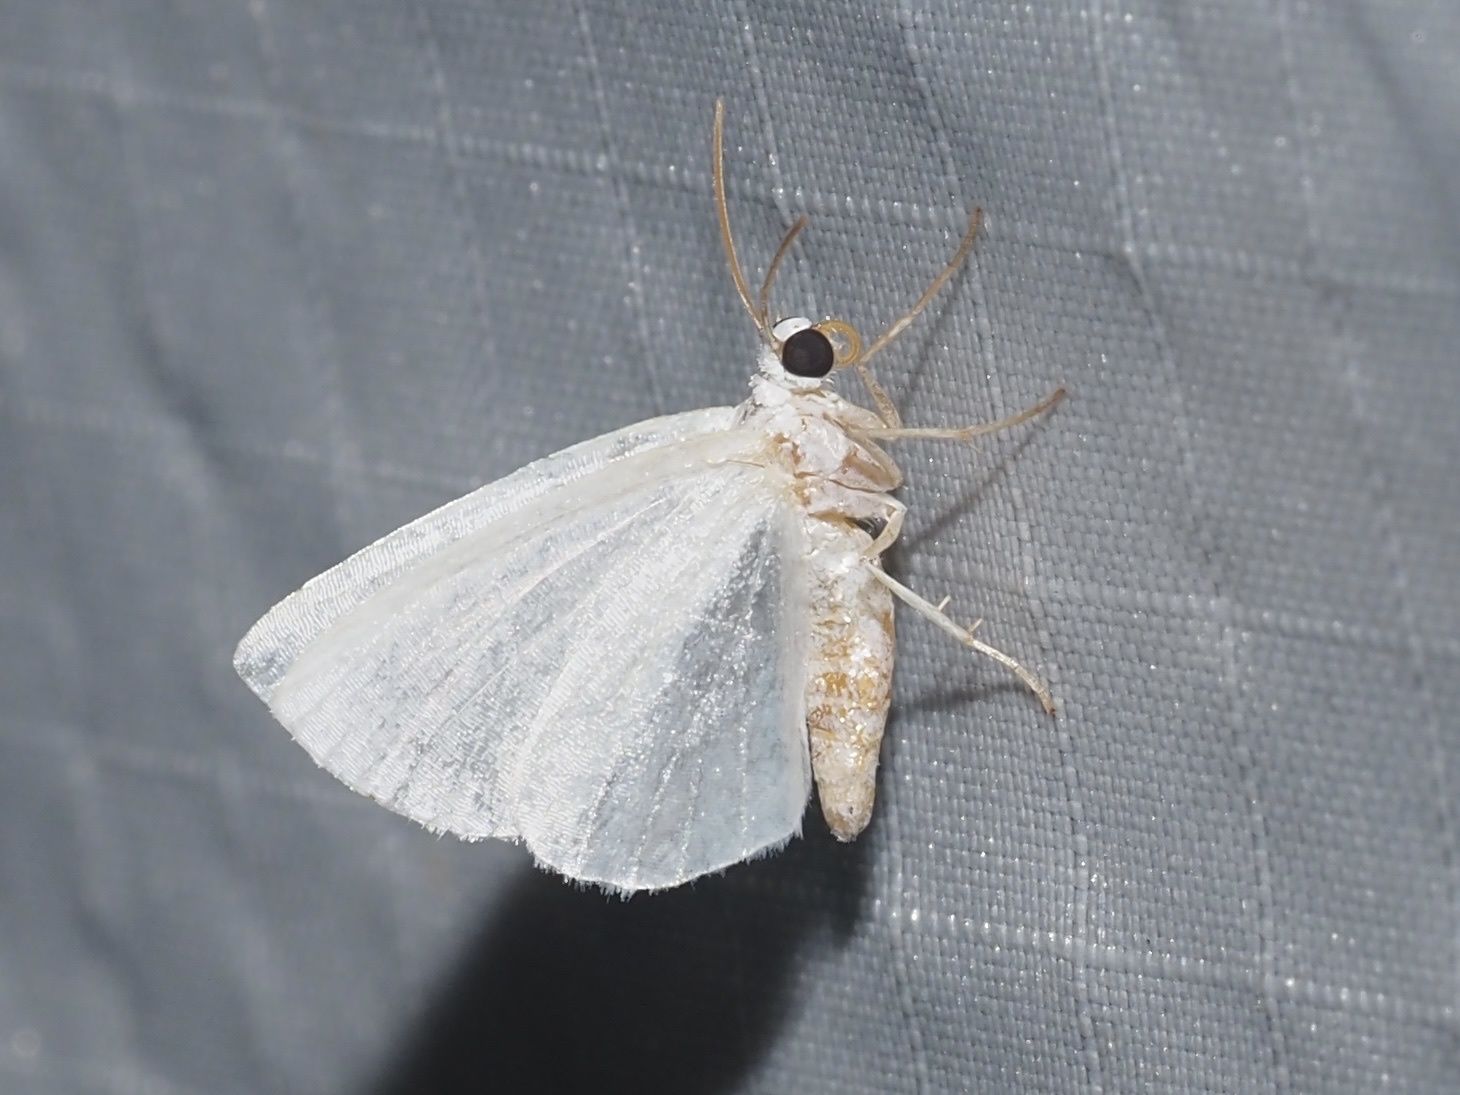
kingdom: Animalia
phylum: Arthropoda
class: Insecta
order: Lepidoptera
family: Geometridae
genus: Lomographa
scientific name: Lomographa vestaliata
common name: White spring moth
